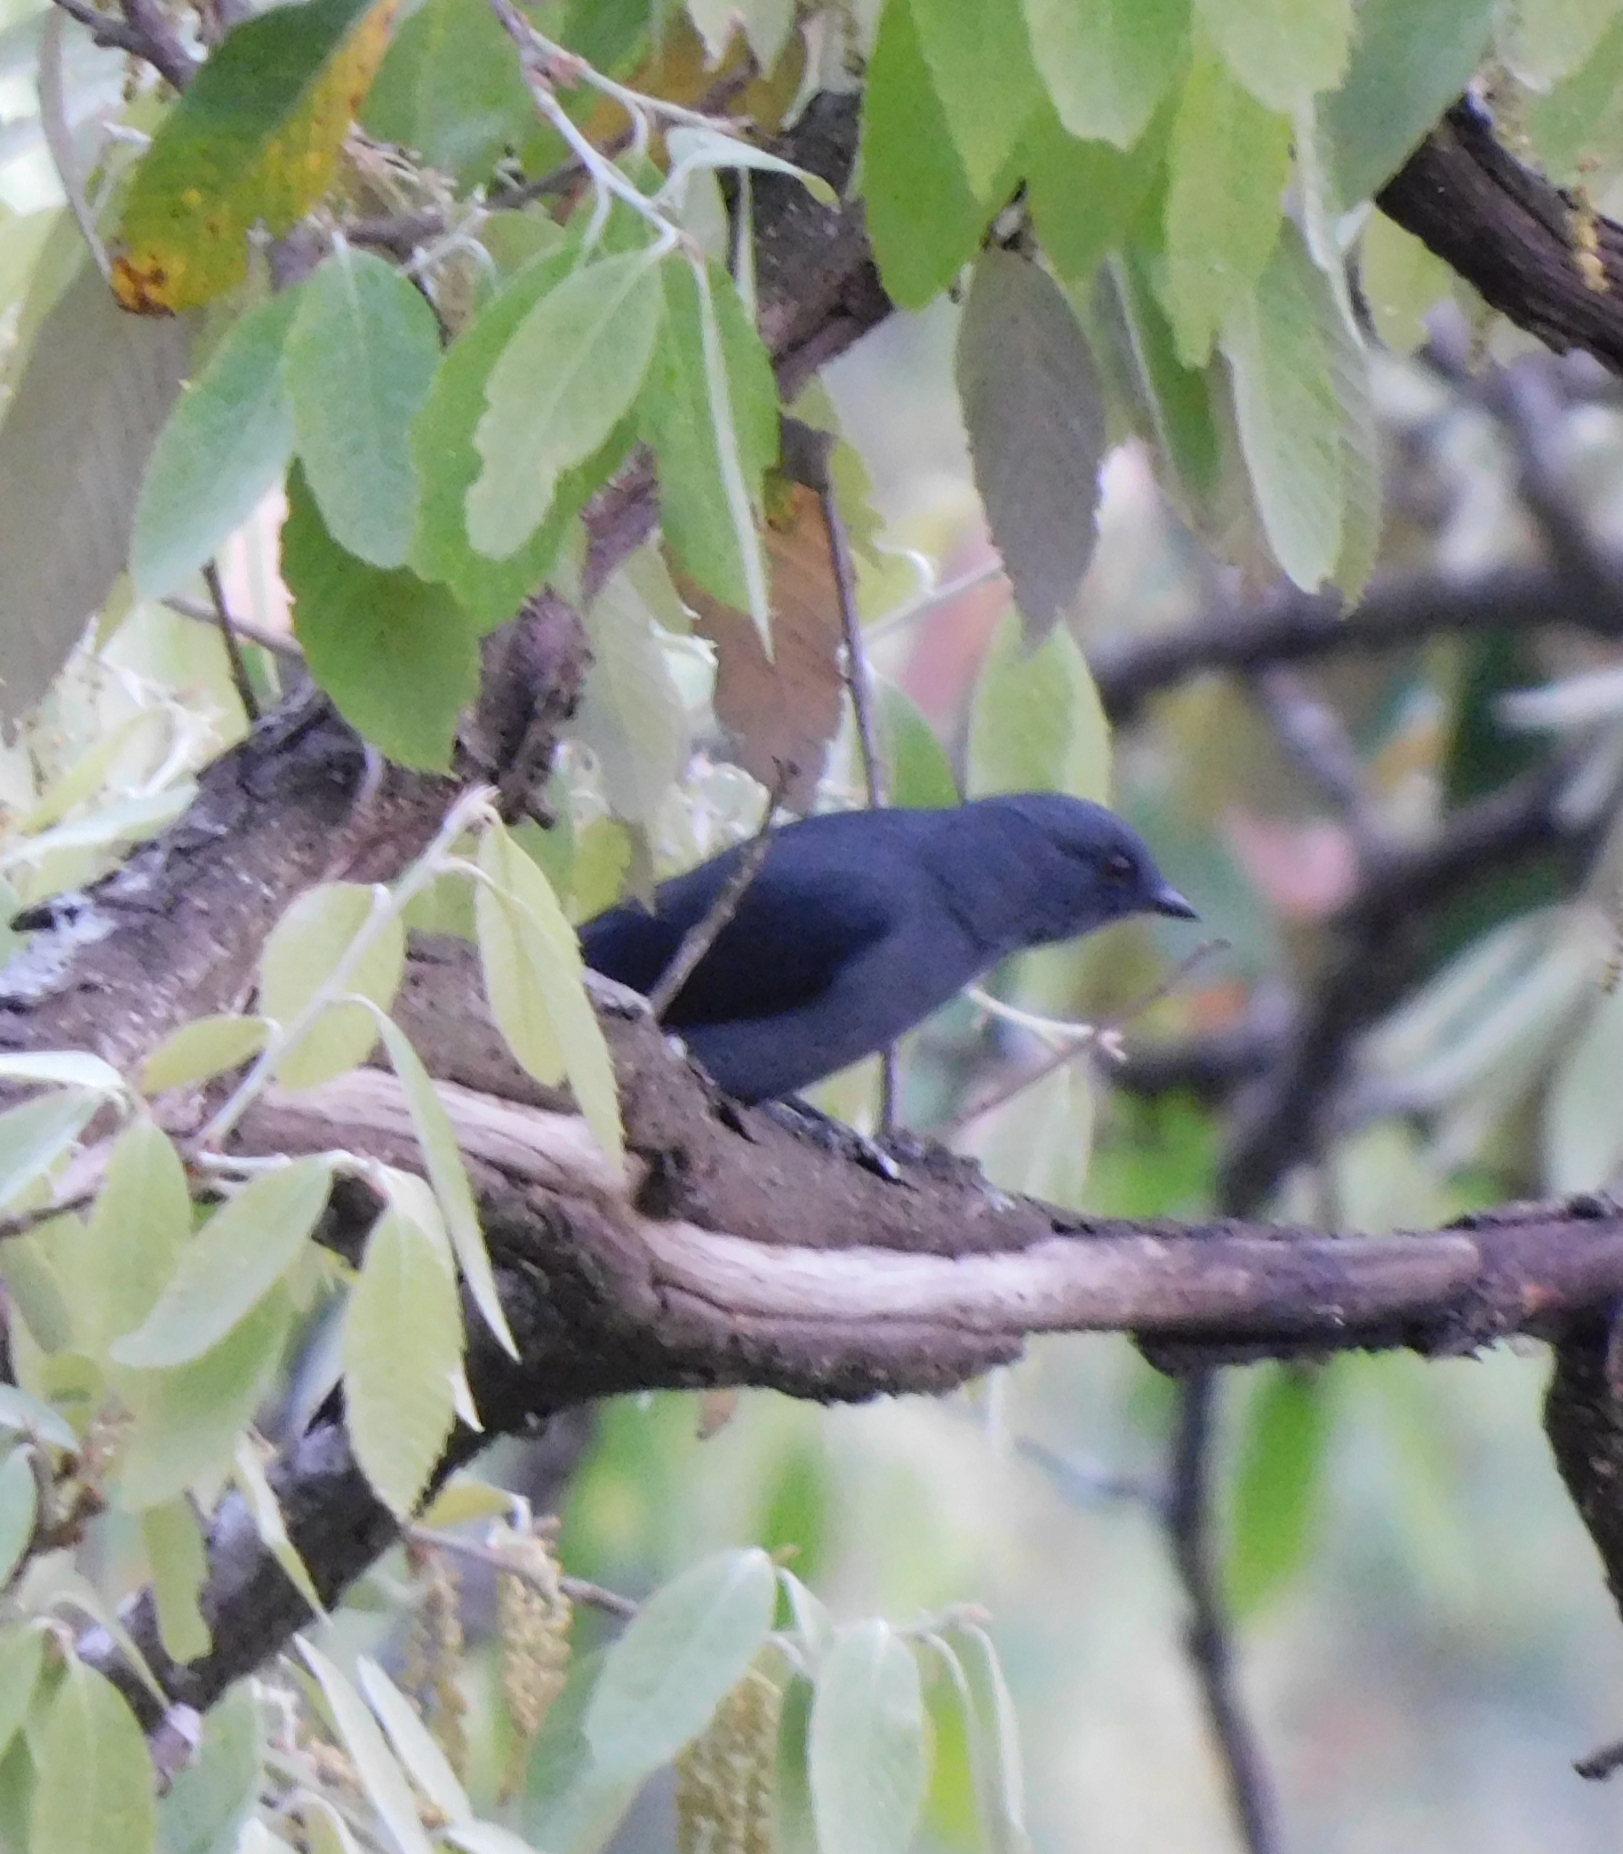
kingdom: Animalia
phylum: Chordata
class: Aves
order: Passeriformes
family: Campephagidae
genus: Coracina
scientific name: Coracina melaschistos
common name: Black-winged cuckooshrike
